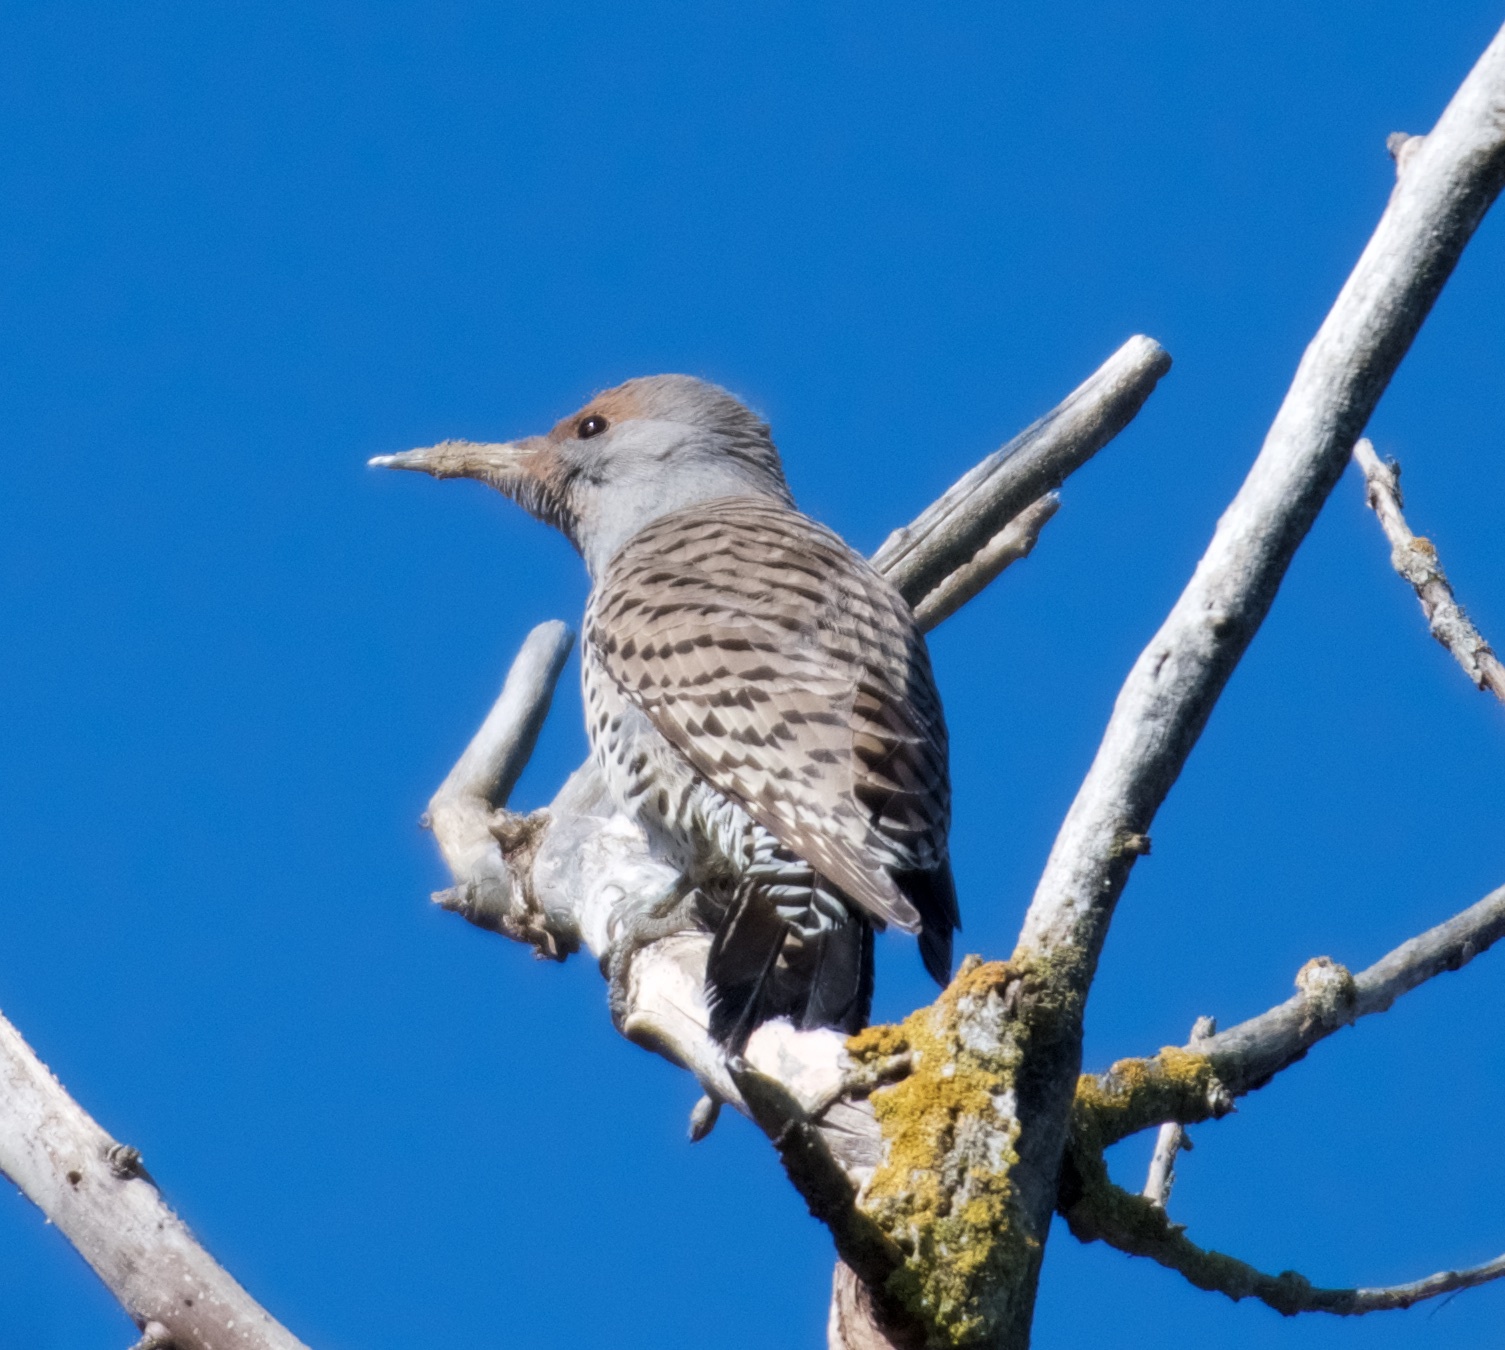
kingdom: Animalia
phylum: Chordata
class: Aves
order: Piciformes
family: Picidae
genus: Colaptes
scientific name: Colaptes auratus
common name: Northern flicker
